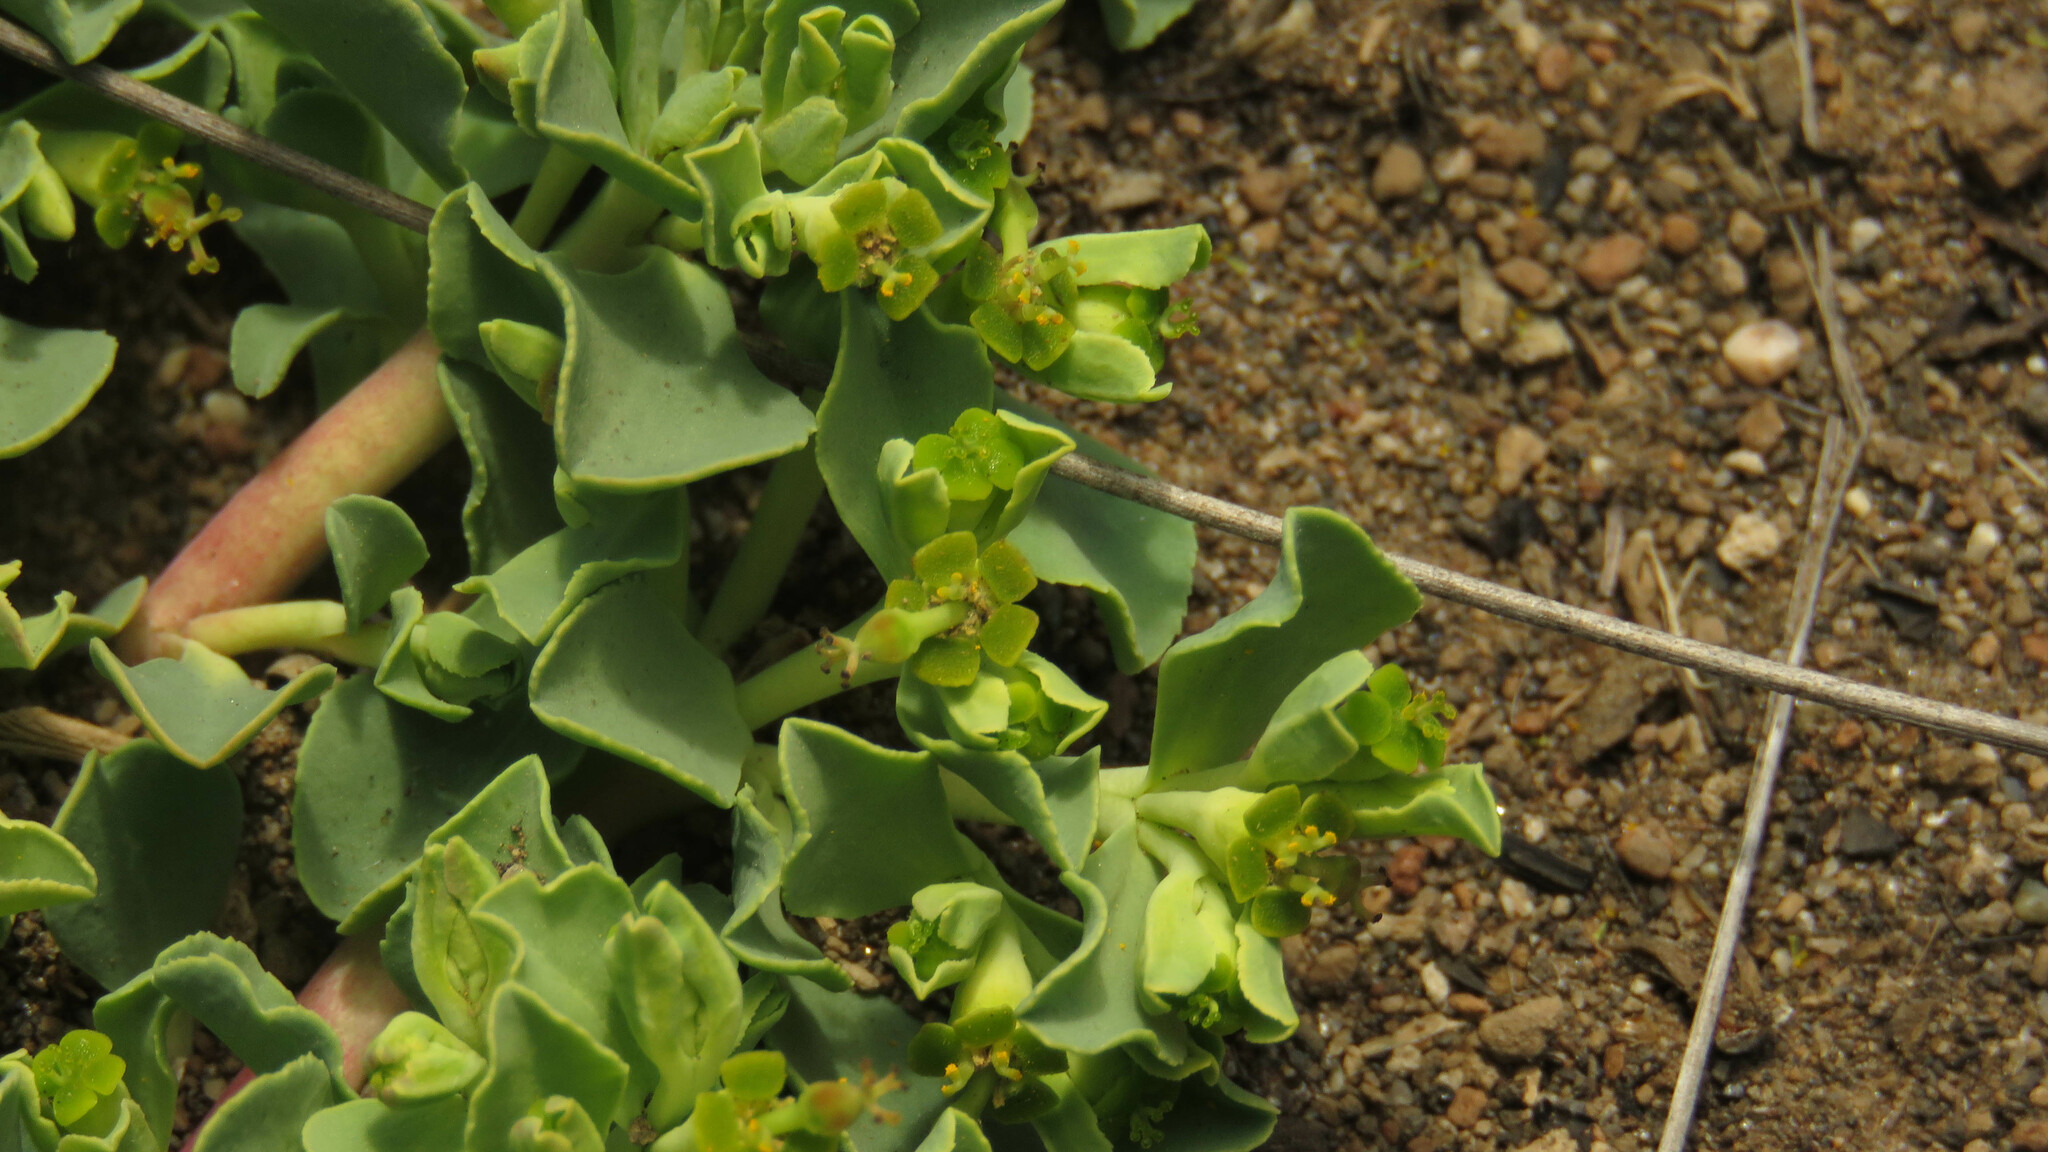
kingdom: Plantae
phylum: Tracheophyta
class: Magnoliopsida
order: Malpighiales
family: Euphorbiaceae
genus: Euphorbia
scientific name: Euphorbia collina
